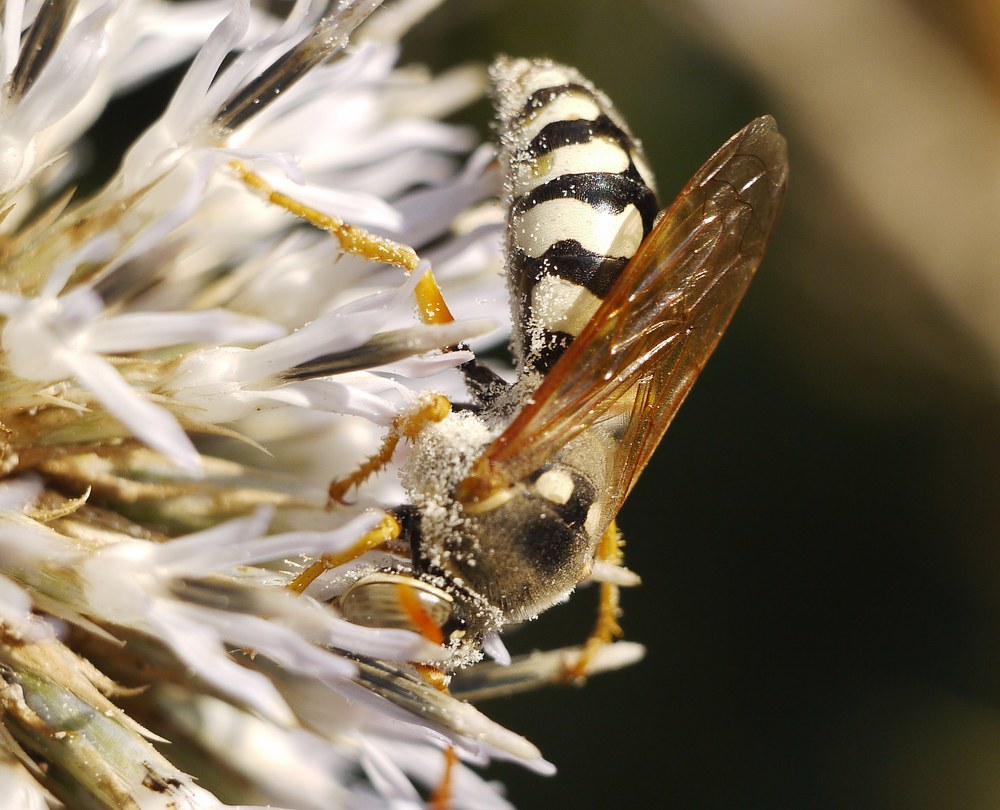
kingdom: Animalia
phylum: Arthropoda
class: Insecta
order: Hymenoptera
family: Crabronidae
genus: Stizus
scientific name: Stizus bipunctatus
